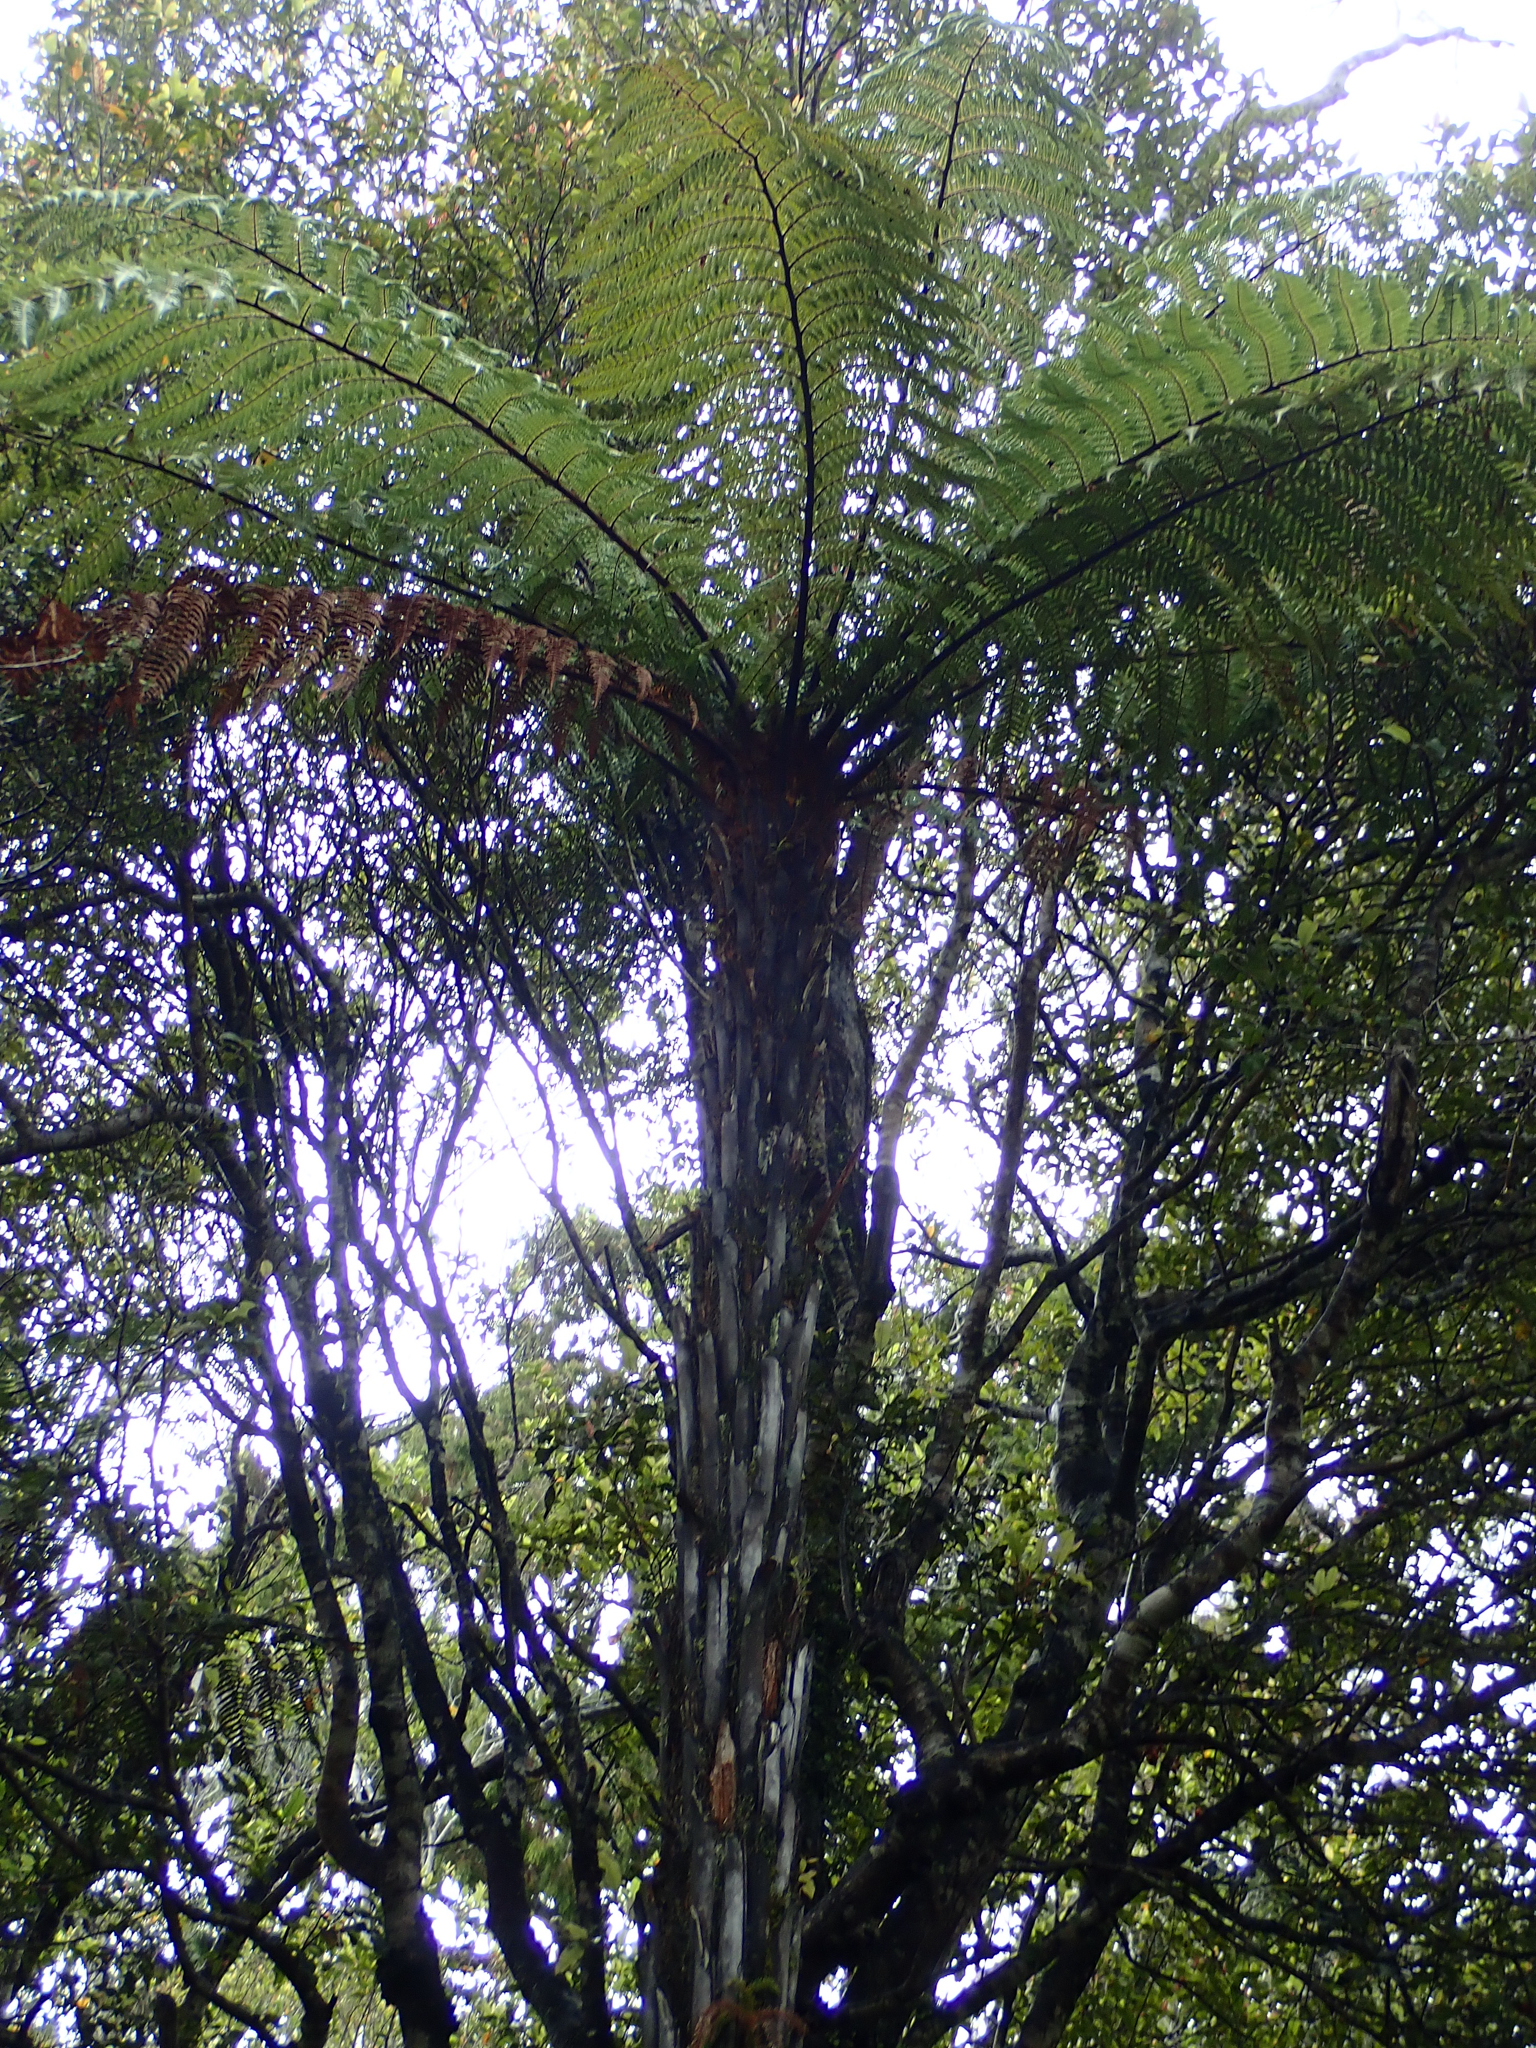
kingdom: Plantae
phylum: Tracheophyta
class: Polypodiopsida
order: Cyatheales
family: Dicksoniaceae
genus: Dicksonia
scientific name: Dicksonia squarrosa
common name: Hard treefern
